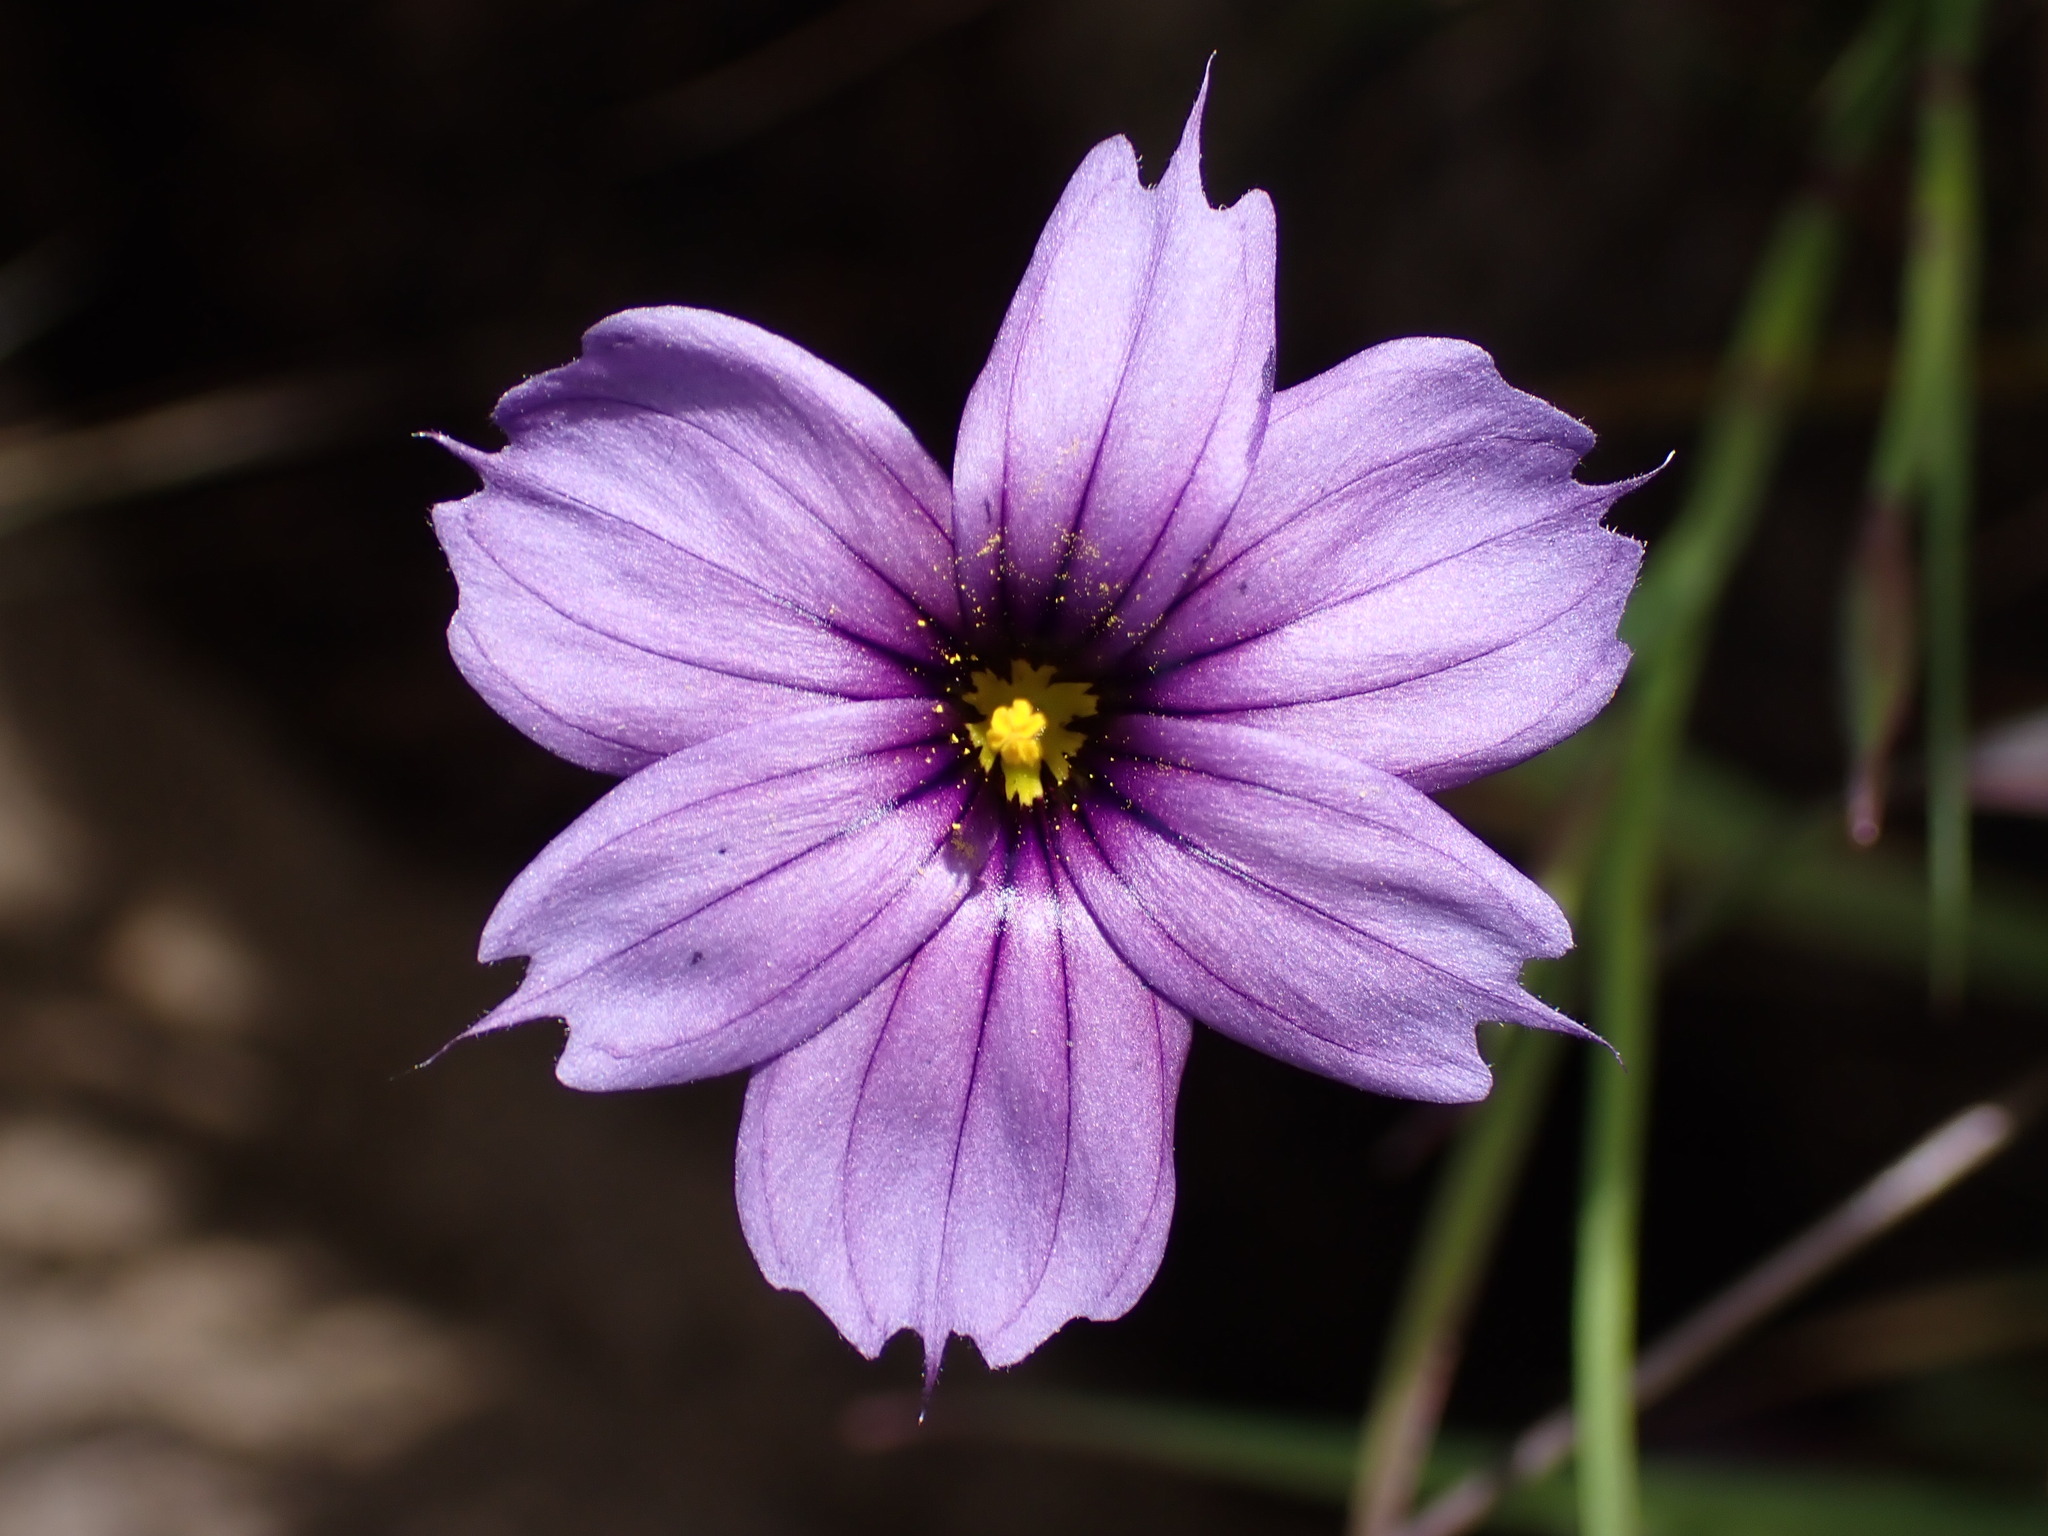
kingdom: Plantae
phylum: Tracheophyta
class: Liliopsida
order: Asparagales
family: Iridaceae
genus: Sisyrinchium
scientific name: Sisyrinchium bellum
